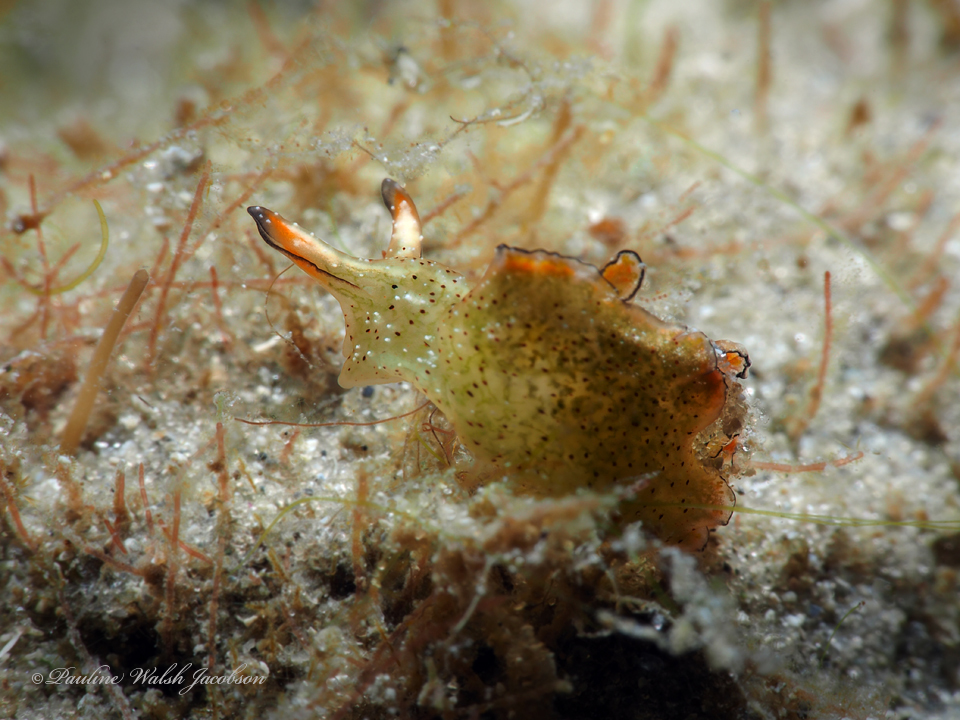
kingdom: Animalia
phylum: Mollusca
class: Gastropoda
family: Plakobranchidae
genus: Elysia
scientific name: Elysia ornata
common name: Ornate elysia
